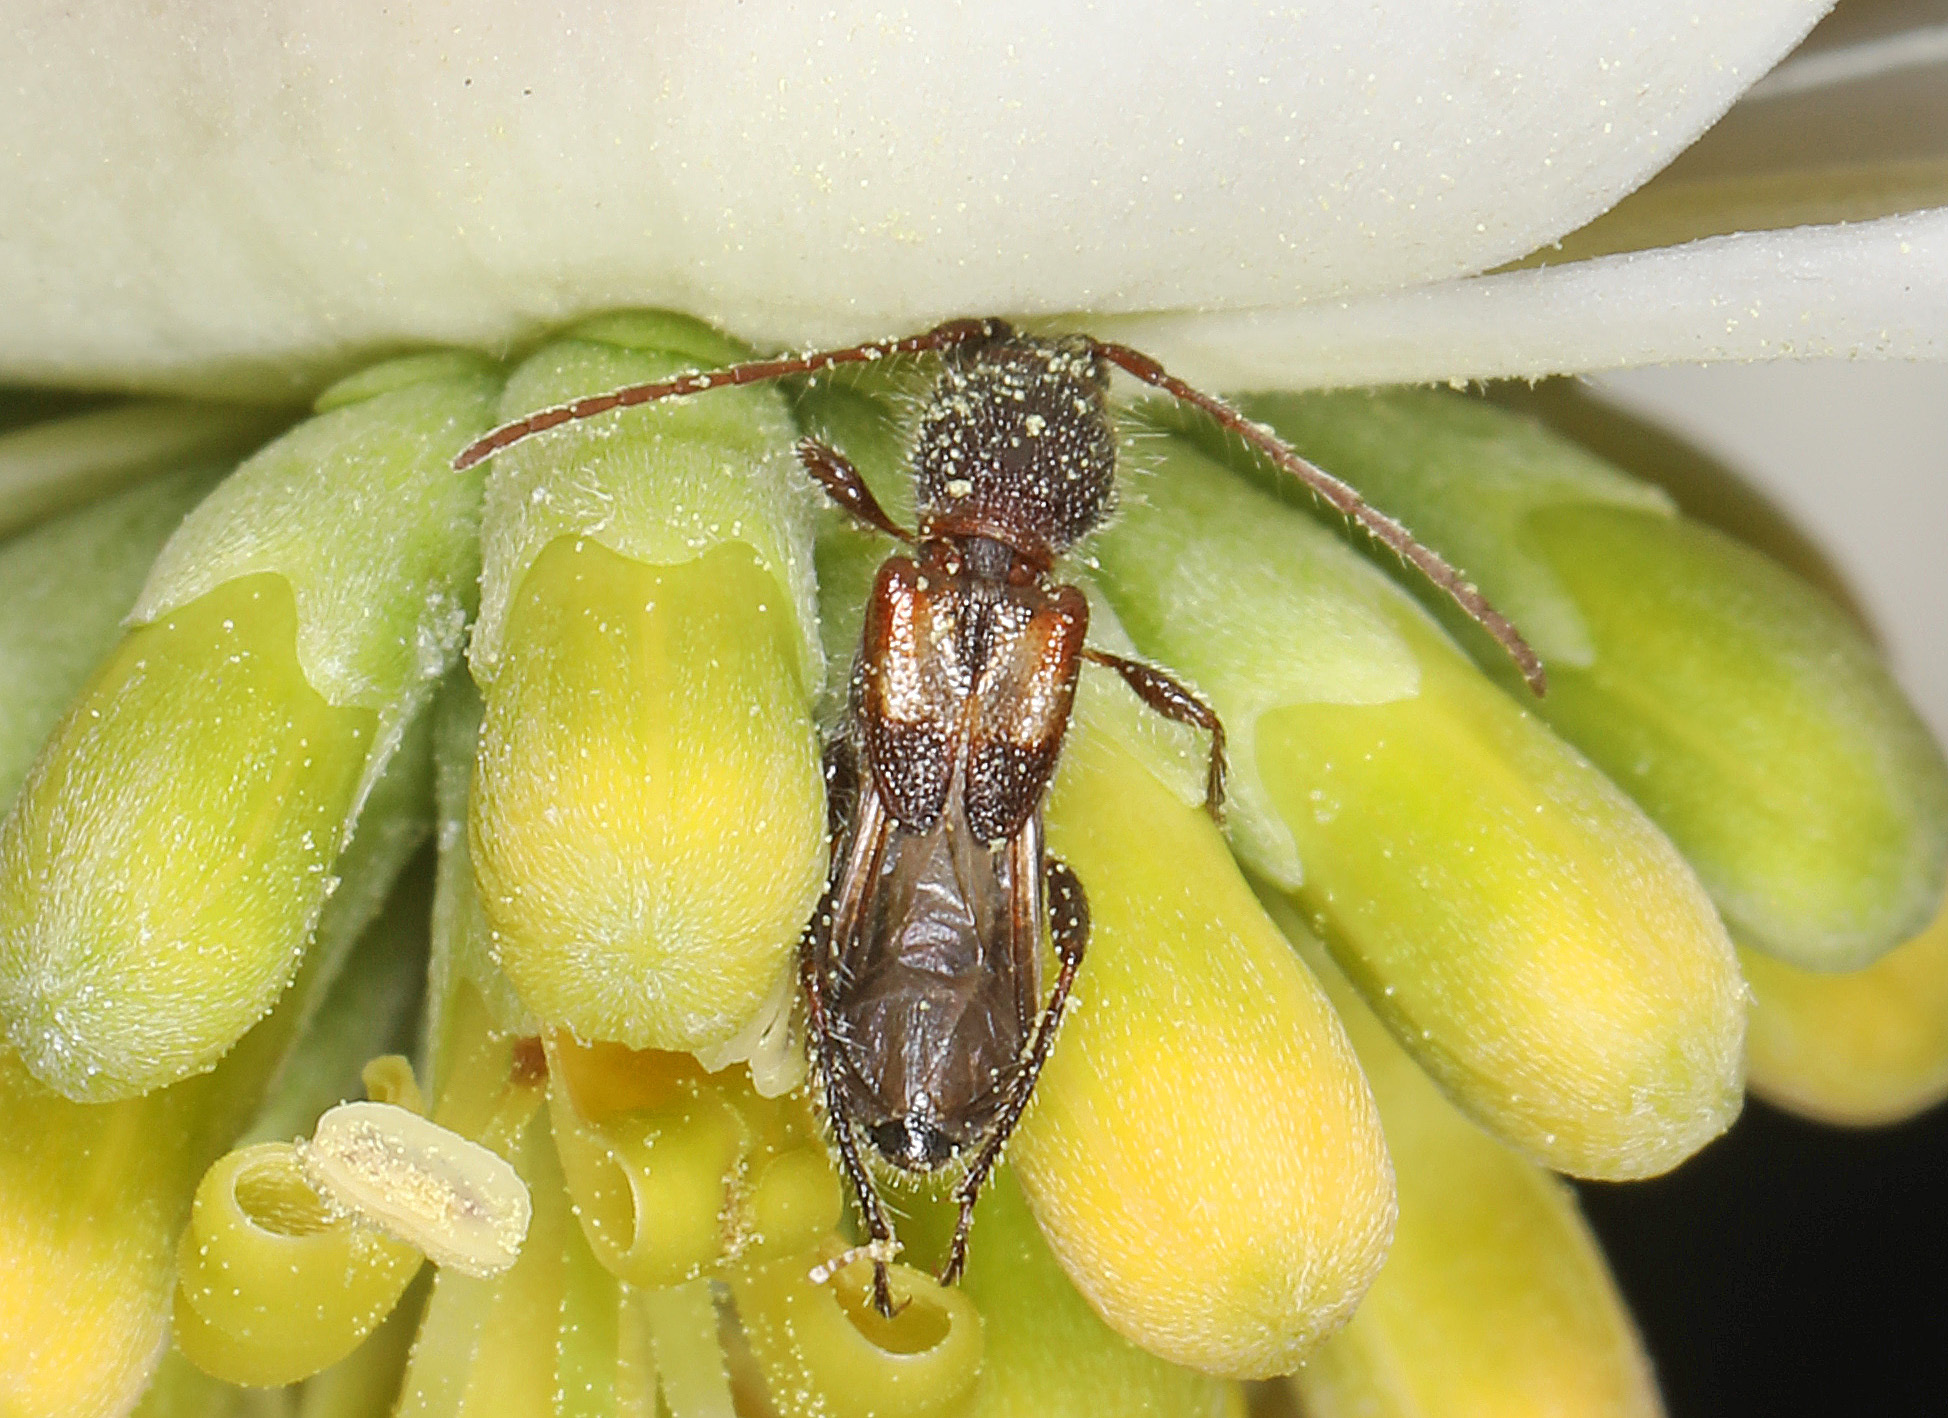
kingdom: Animalia
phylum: Arthropoda
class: Insecta
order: Coleoptera
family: Cerambycidae
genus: Molorchus
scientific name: Molorchus bimaculatus
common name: Bimaculate longhorn beetle
